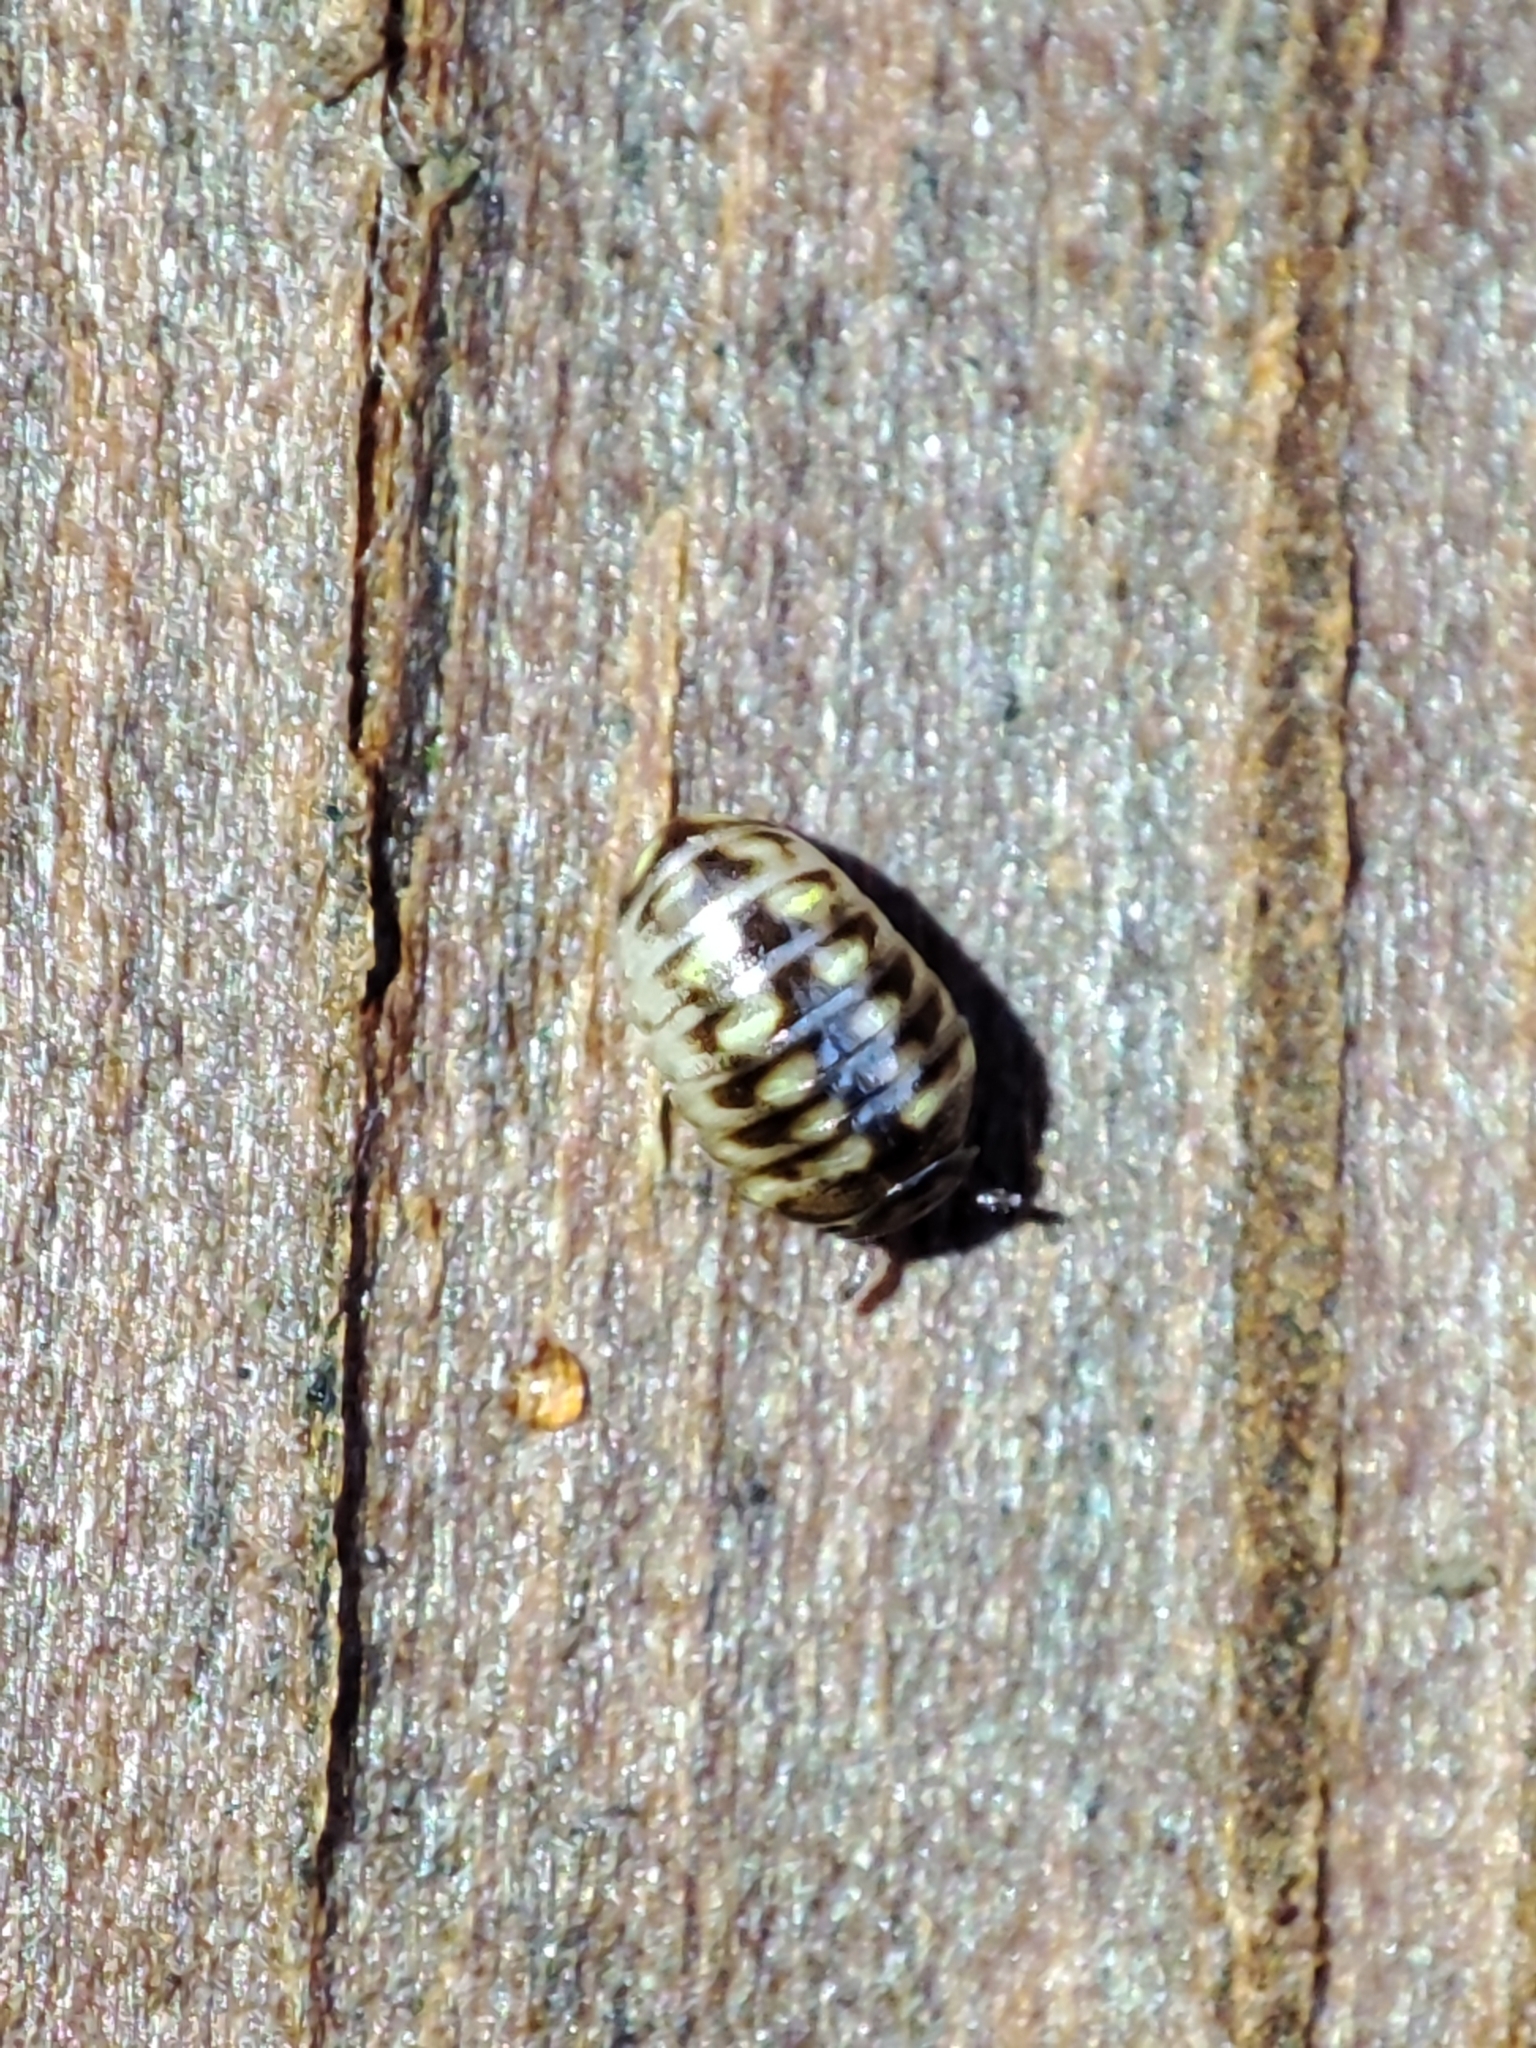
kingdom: Animalia
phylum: Arthropoda
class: Diplopoda
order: Glomerida
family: Glomeridae
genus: Glomeris
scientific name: Glomeris hexasticha
